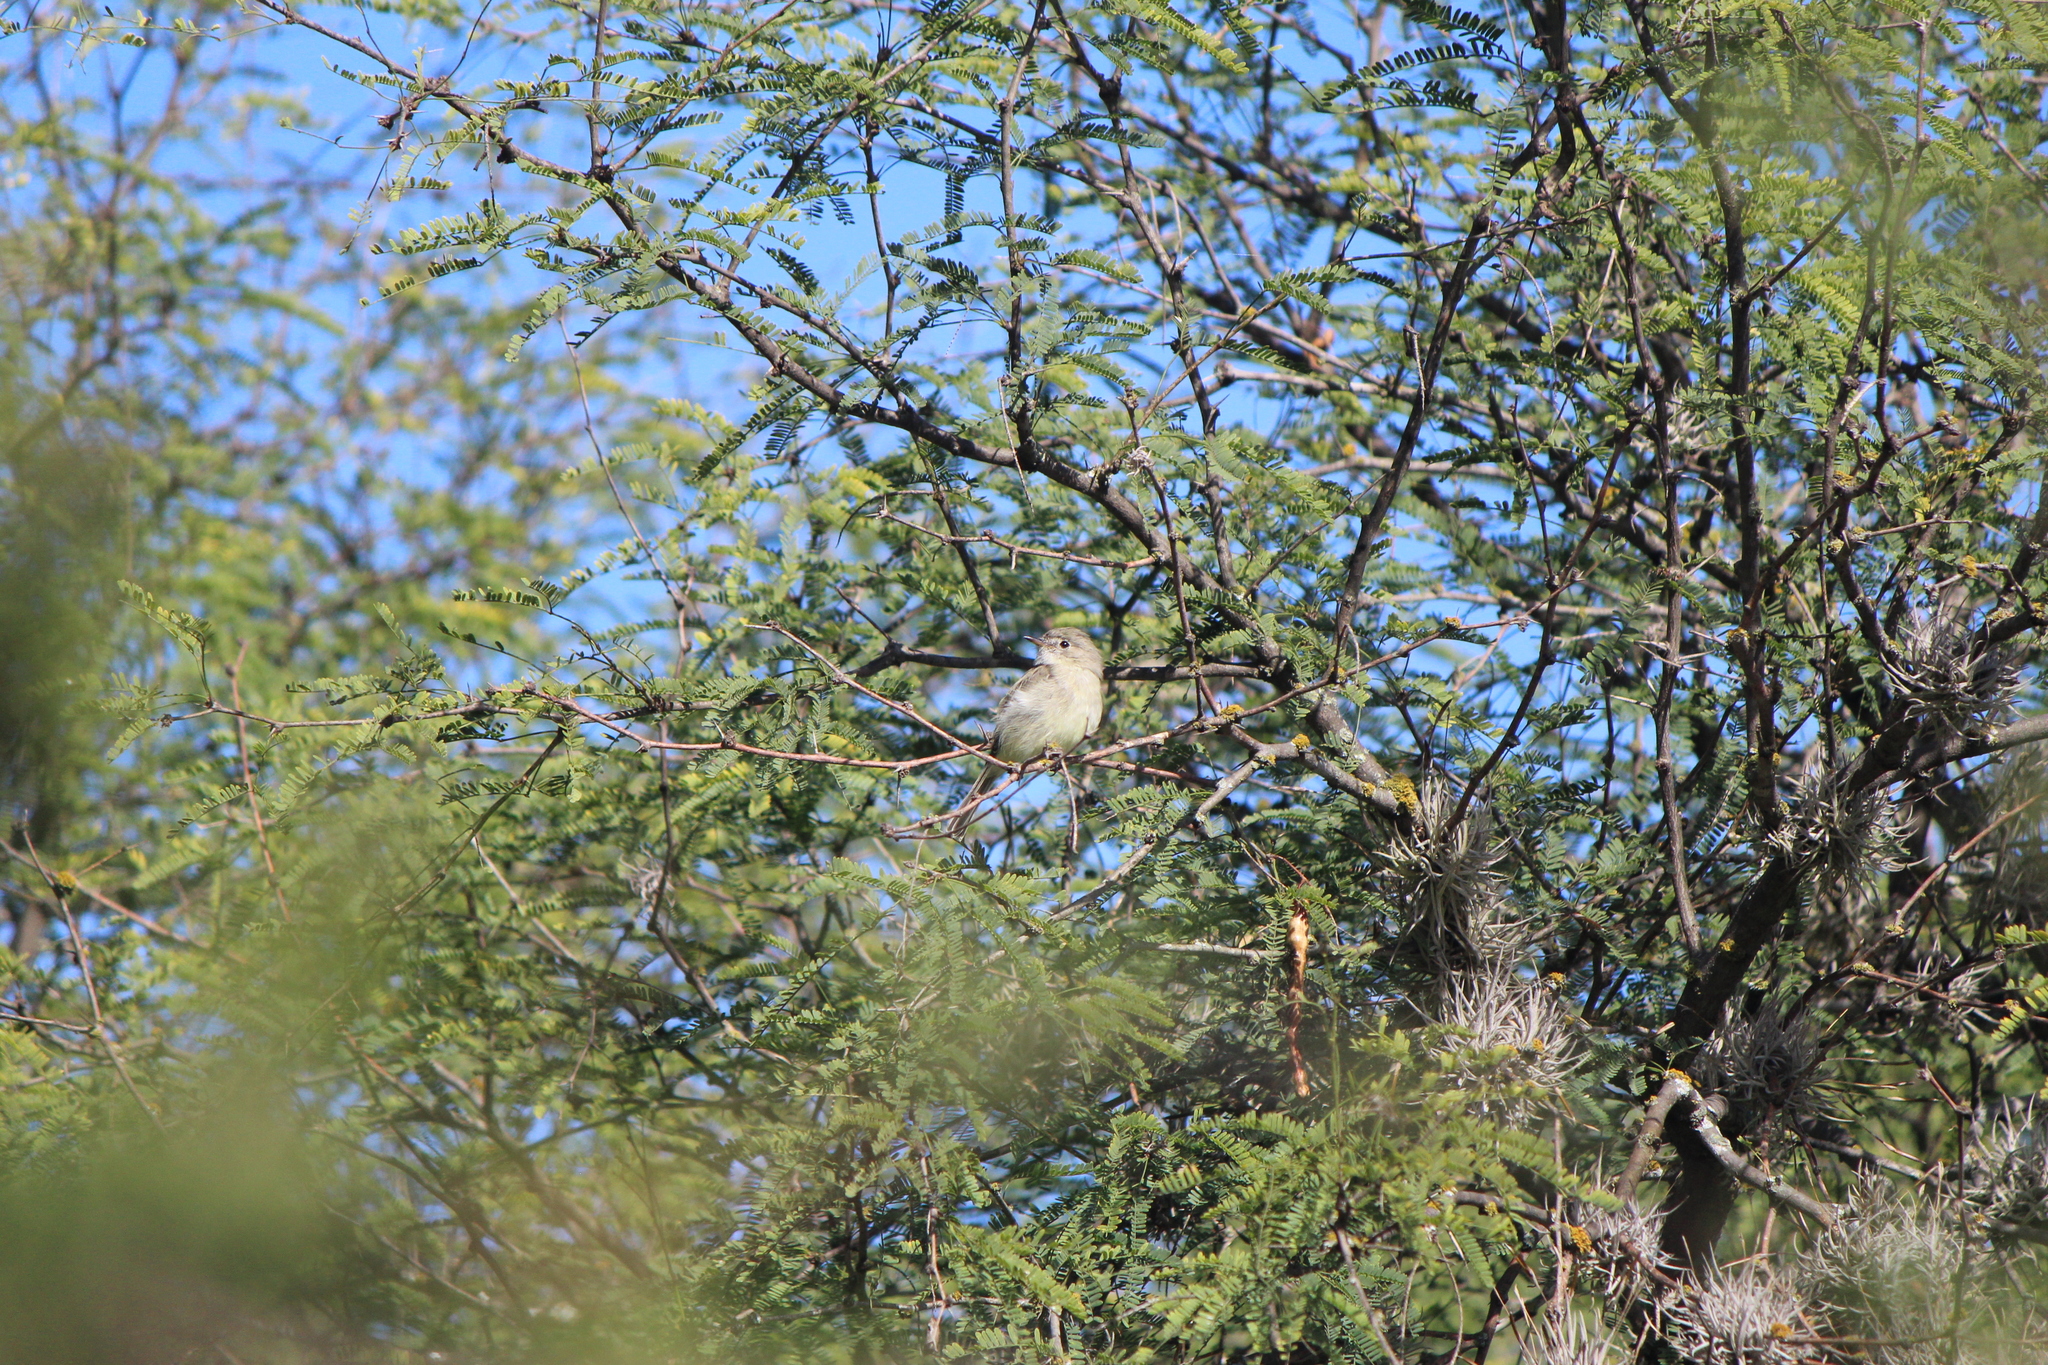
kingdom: Animalia
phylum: Chordata
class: Aves
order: Passeriformes
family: Tyrannidae
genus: Empidonax
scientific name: Empidonax
